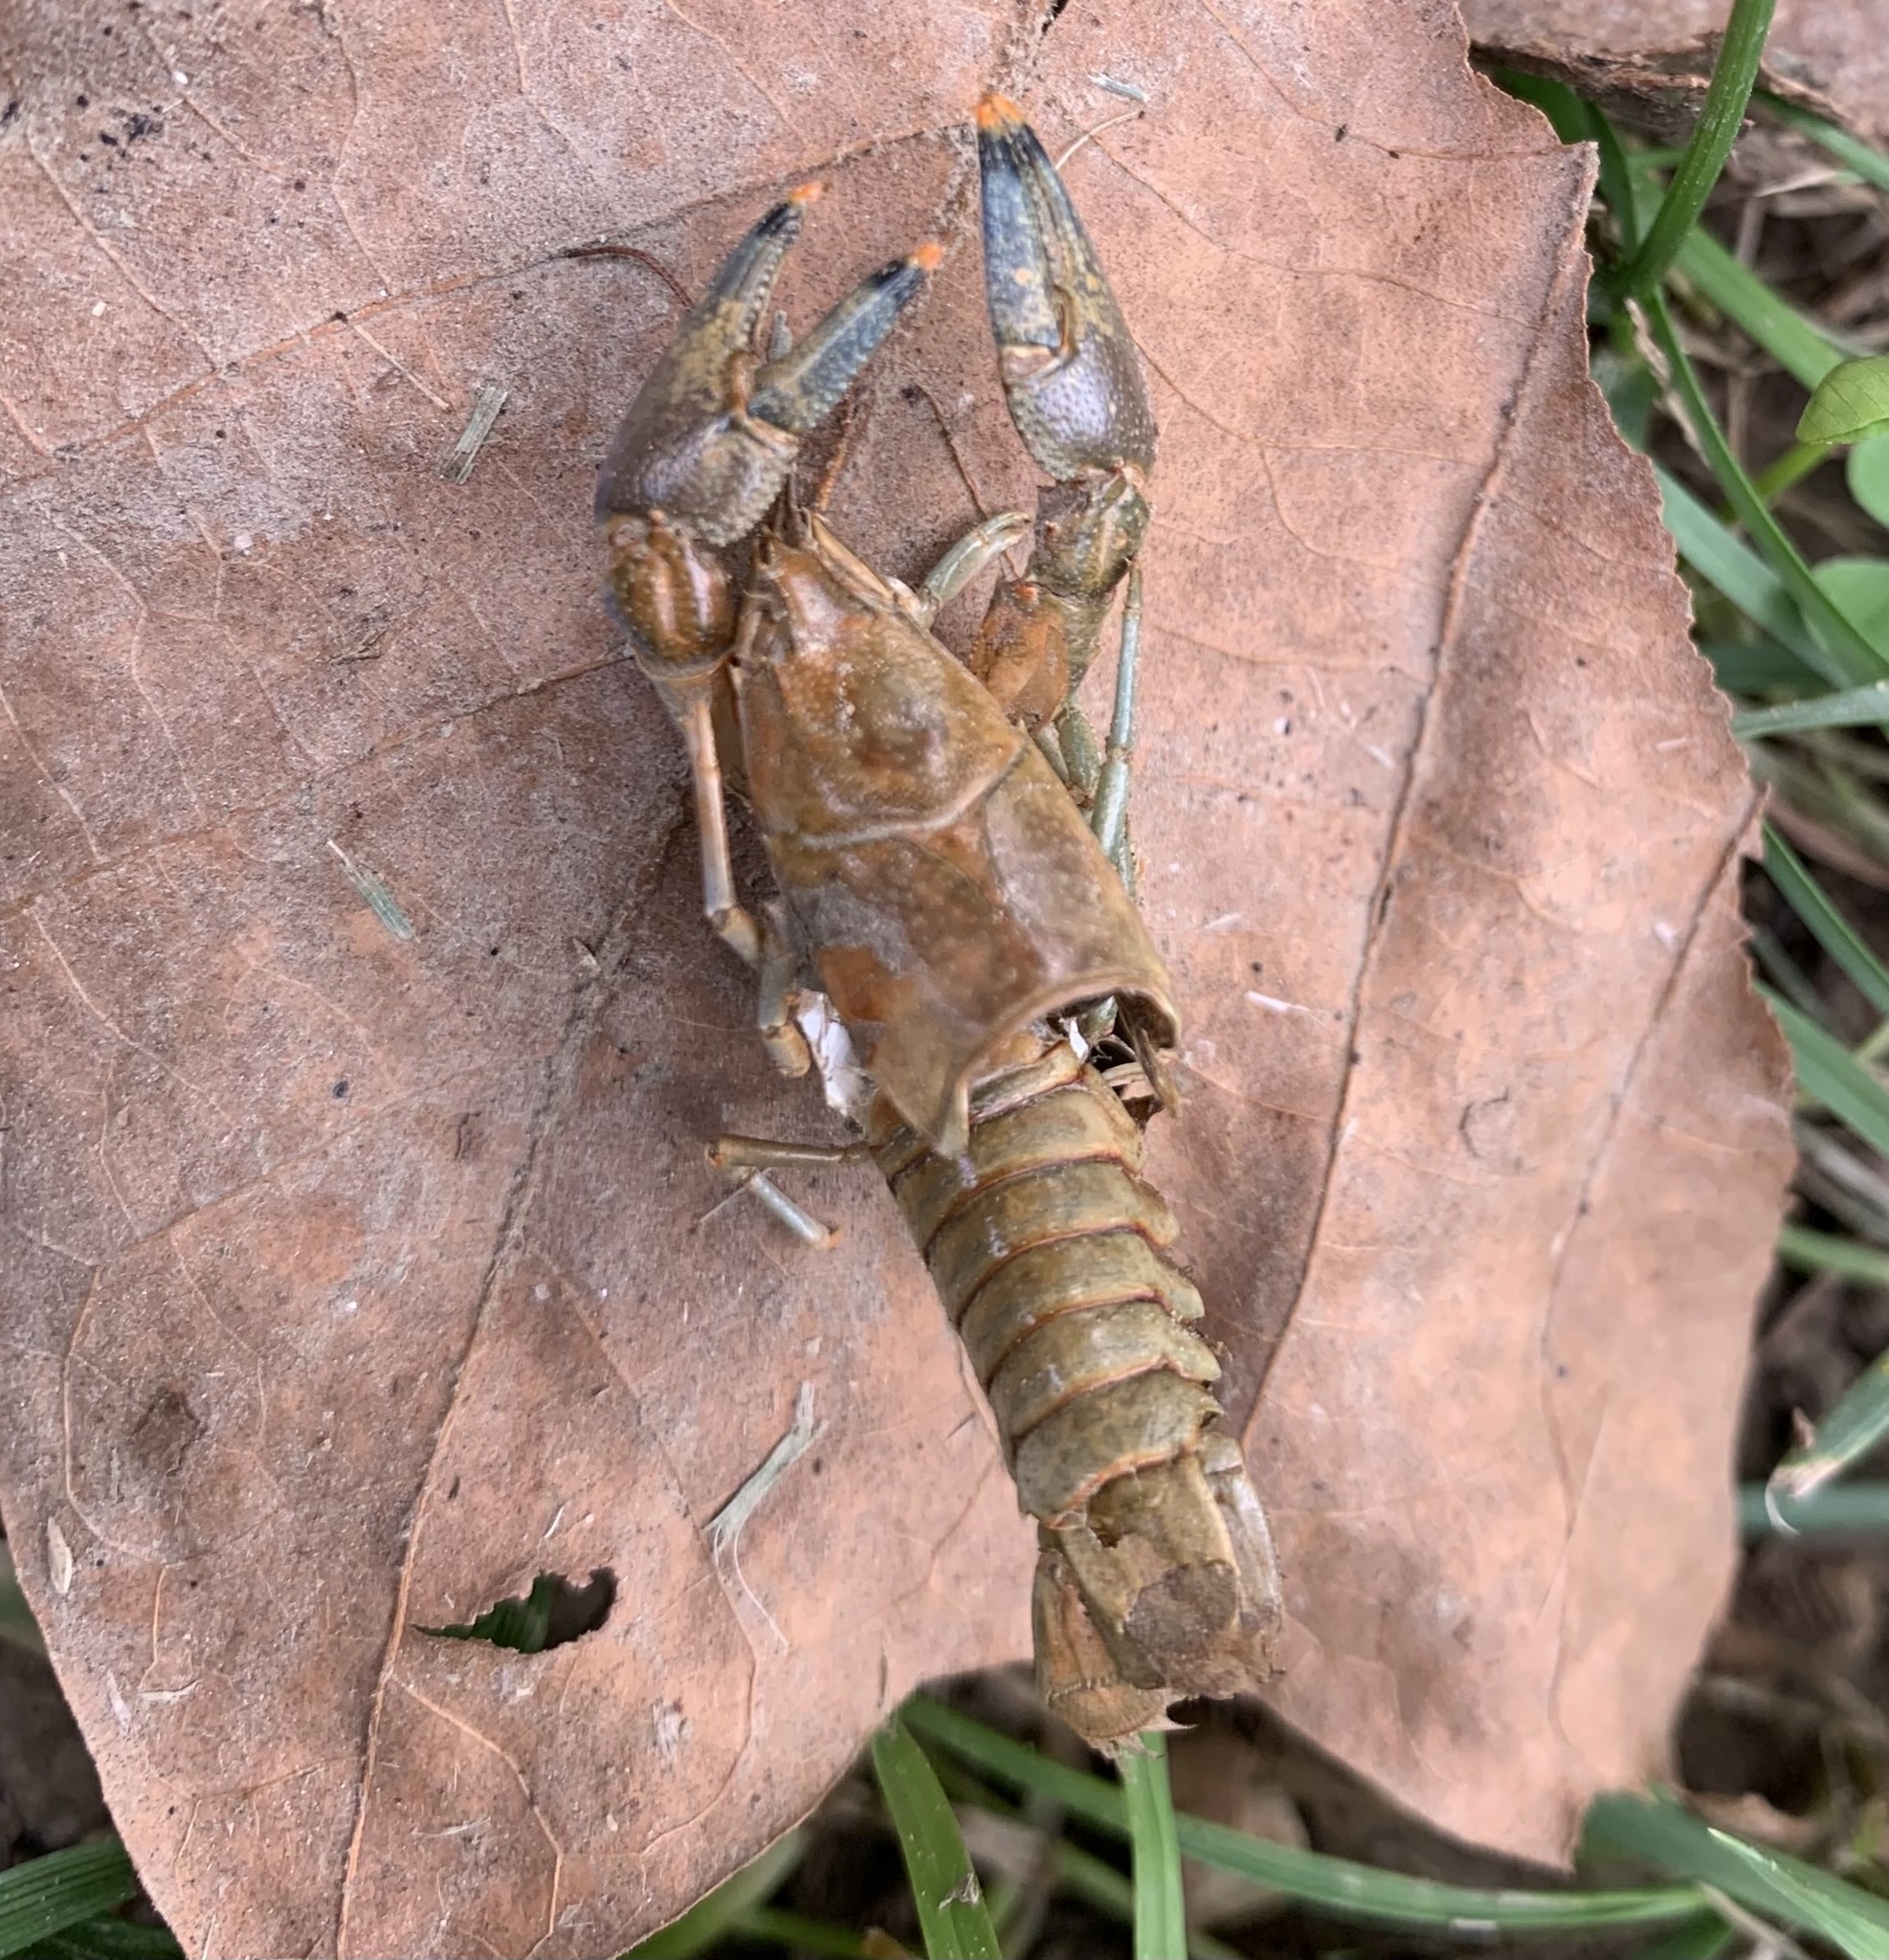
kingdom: Animalia
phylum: Arthropoda
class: Malacostraca
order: Decapoda
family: Cambaridae
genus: Faxonius
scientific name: Faxonius rusticus
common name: Rusty crayfish
